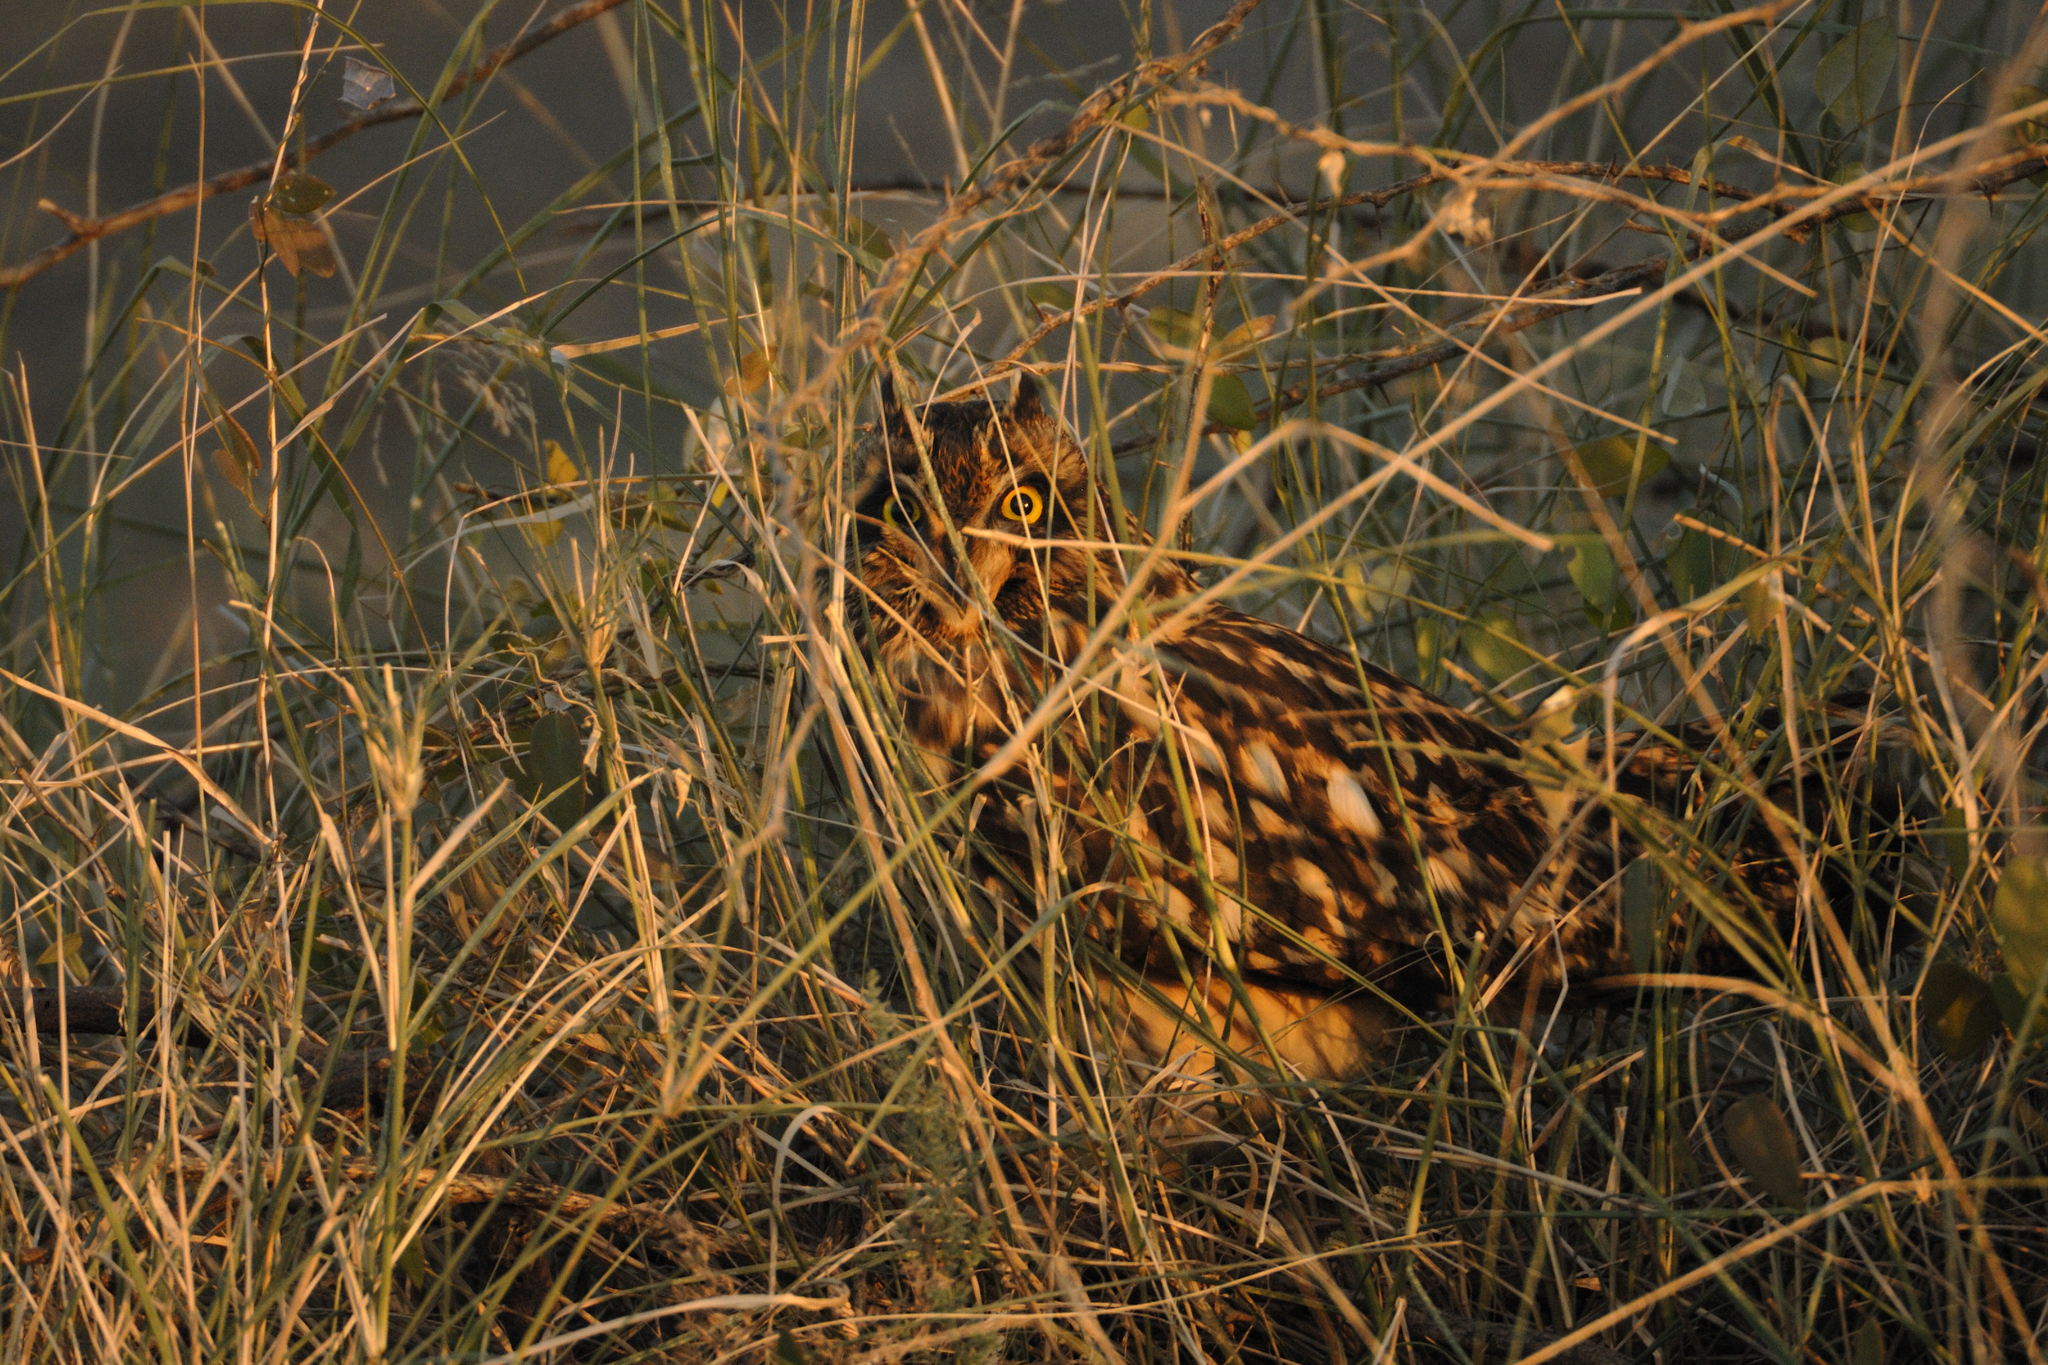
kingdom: Animalia
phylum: Chordata
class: Aves
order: Strigiformes
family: Strigidae
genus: Asio
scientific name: Asio flammeus
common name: Short-eared owl
